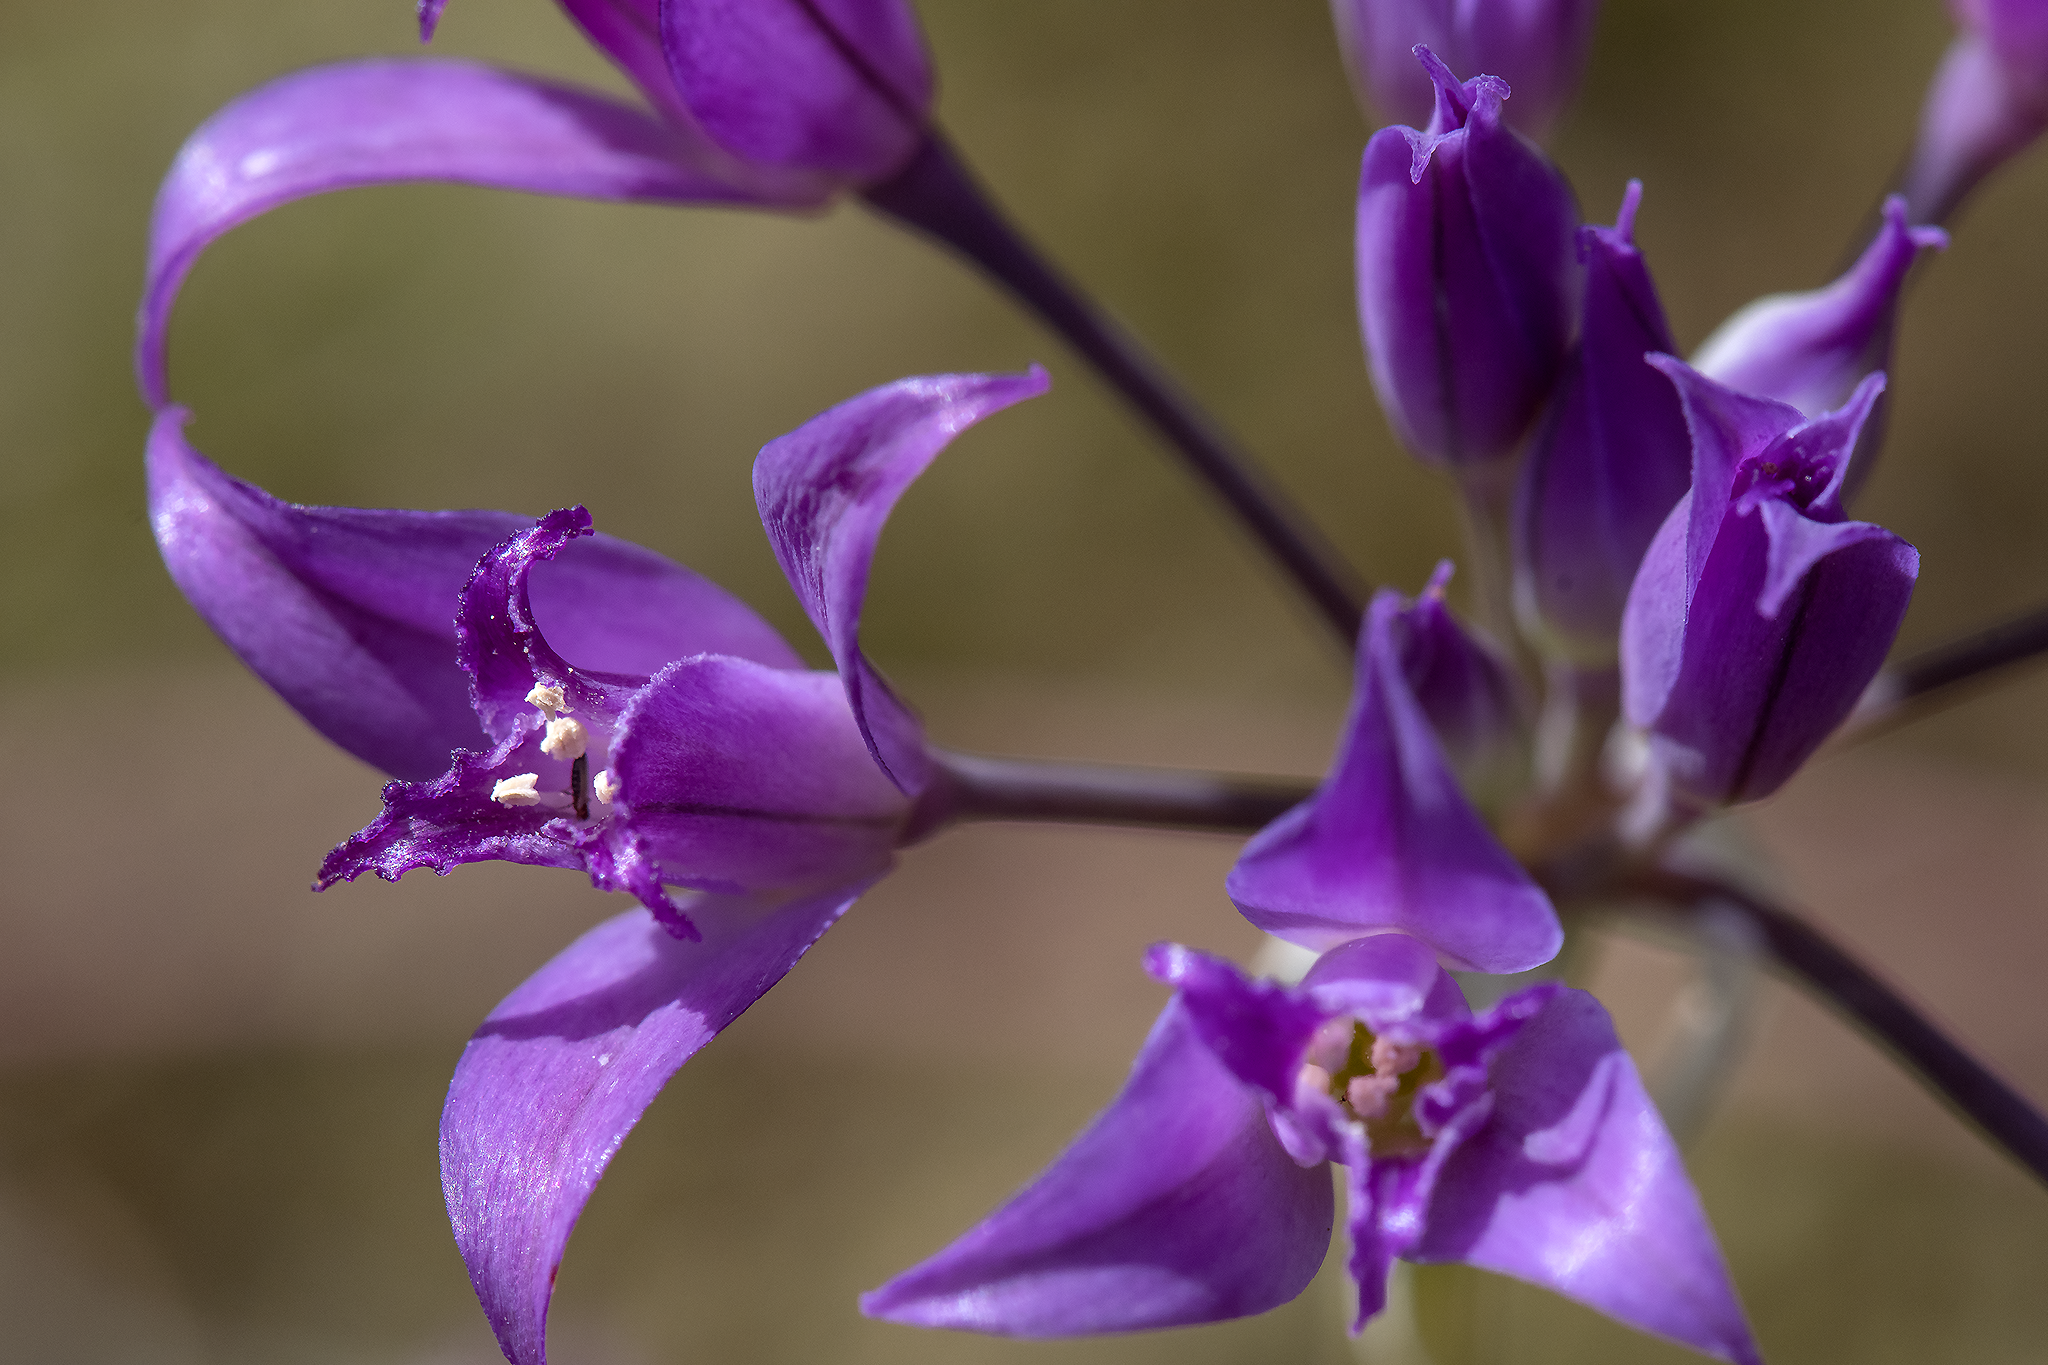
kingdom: Plantae
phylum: Tracheophyta
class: Liliopsida
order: Asparagales
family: Amaryllidaceae
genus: Allium
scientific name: Allium acuminatum
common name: Hooker's onion
